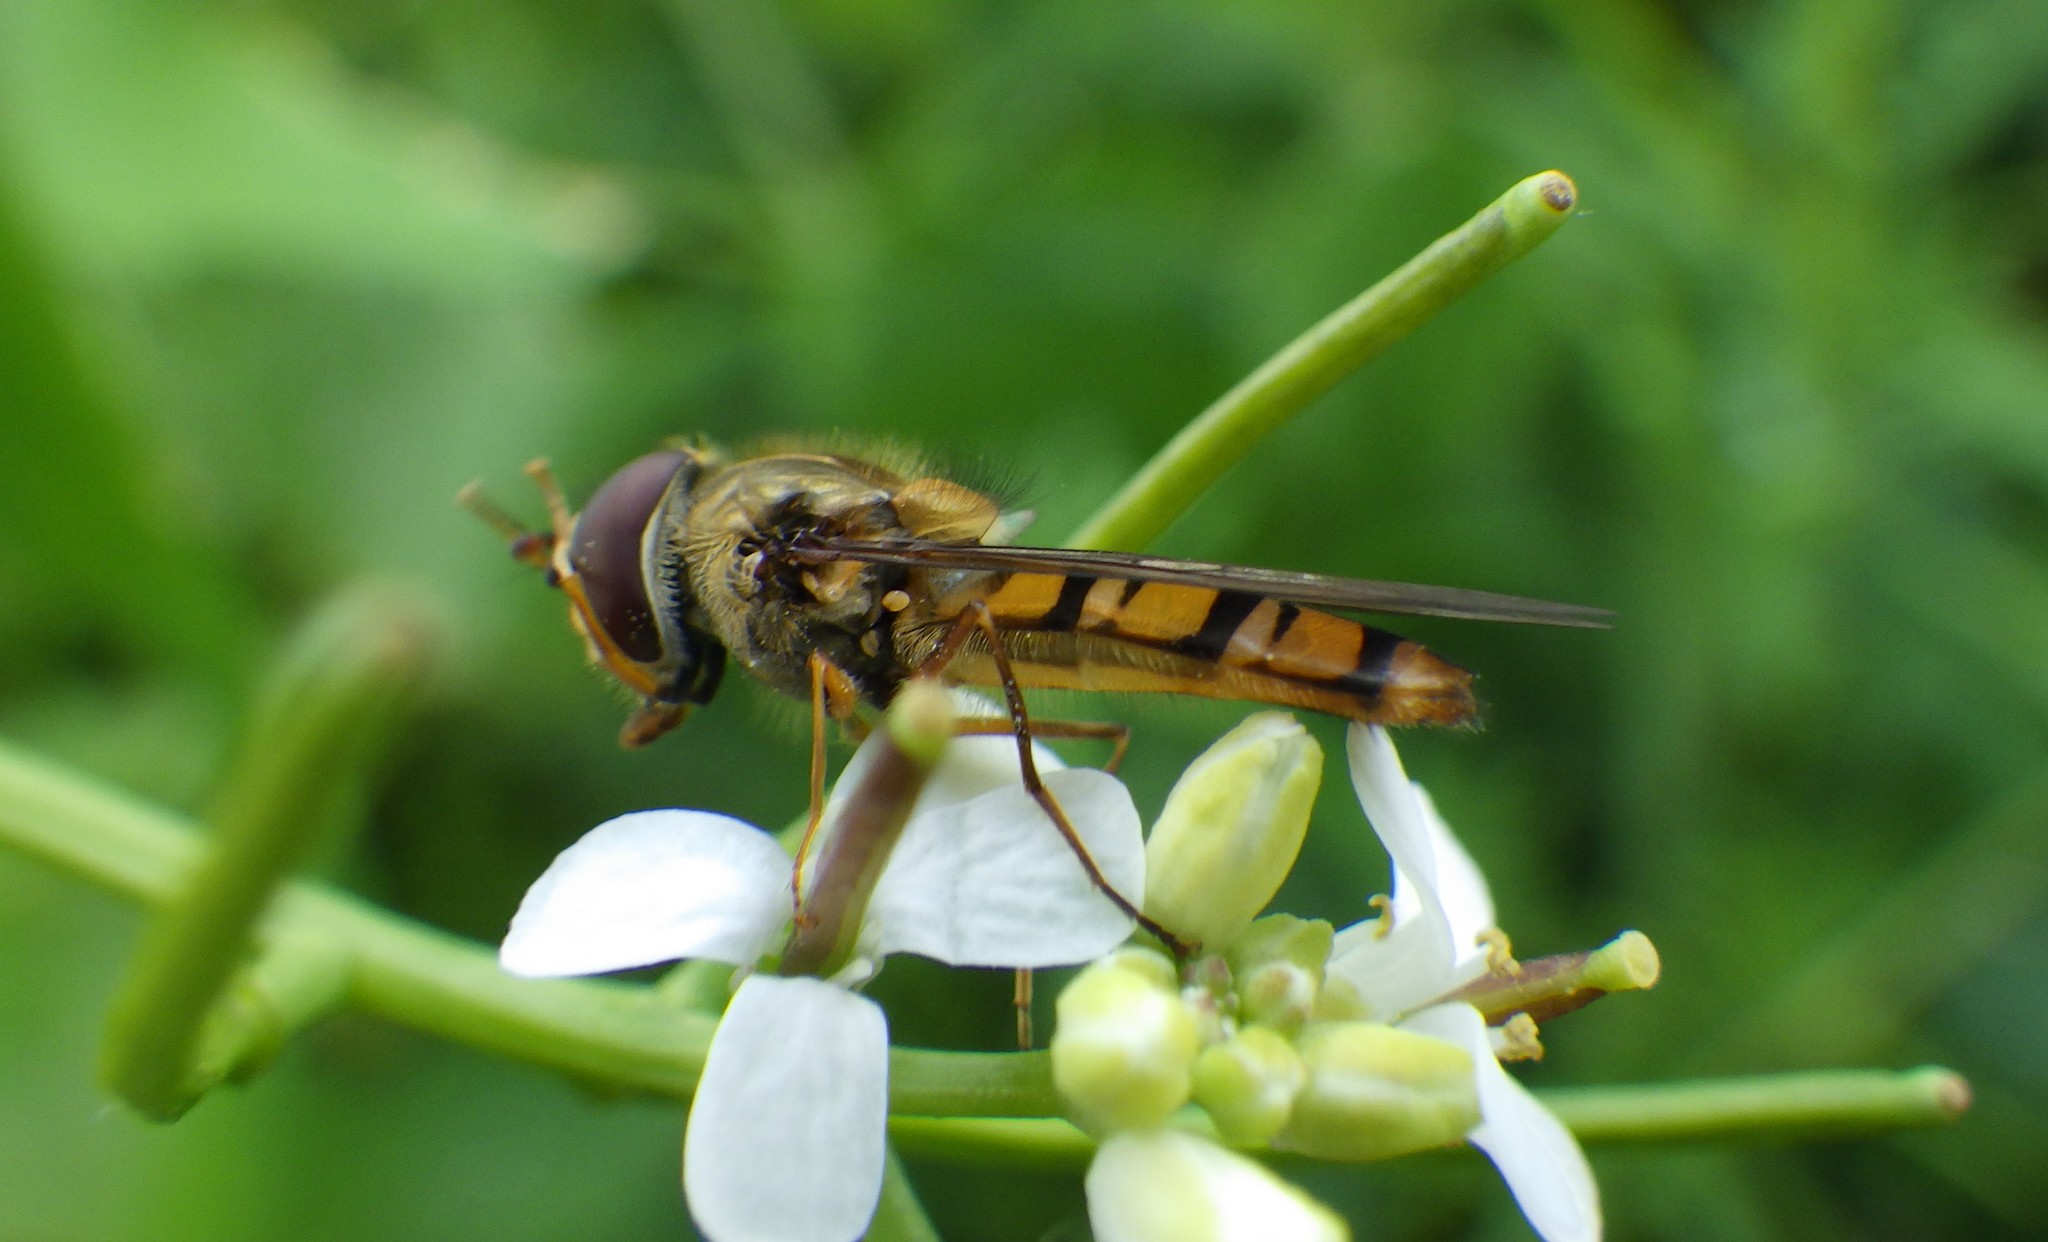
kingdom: Animalia
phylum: Arthropoda
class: Insecta
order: Diptera
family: Syrphidae
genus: Episyrphus
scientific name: Episyrphus balteatus
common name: Marmalade hoverfly
